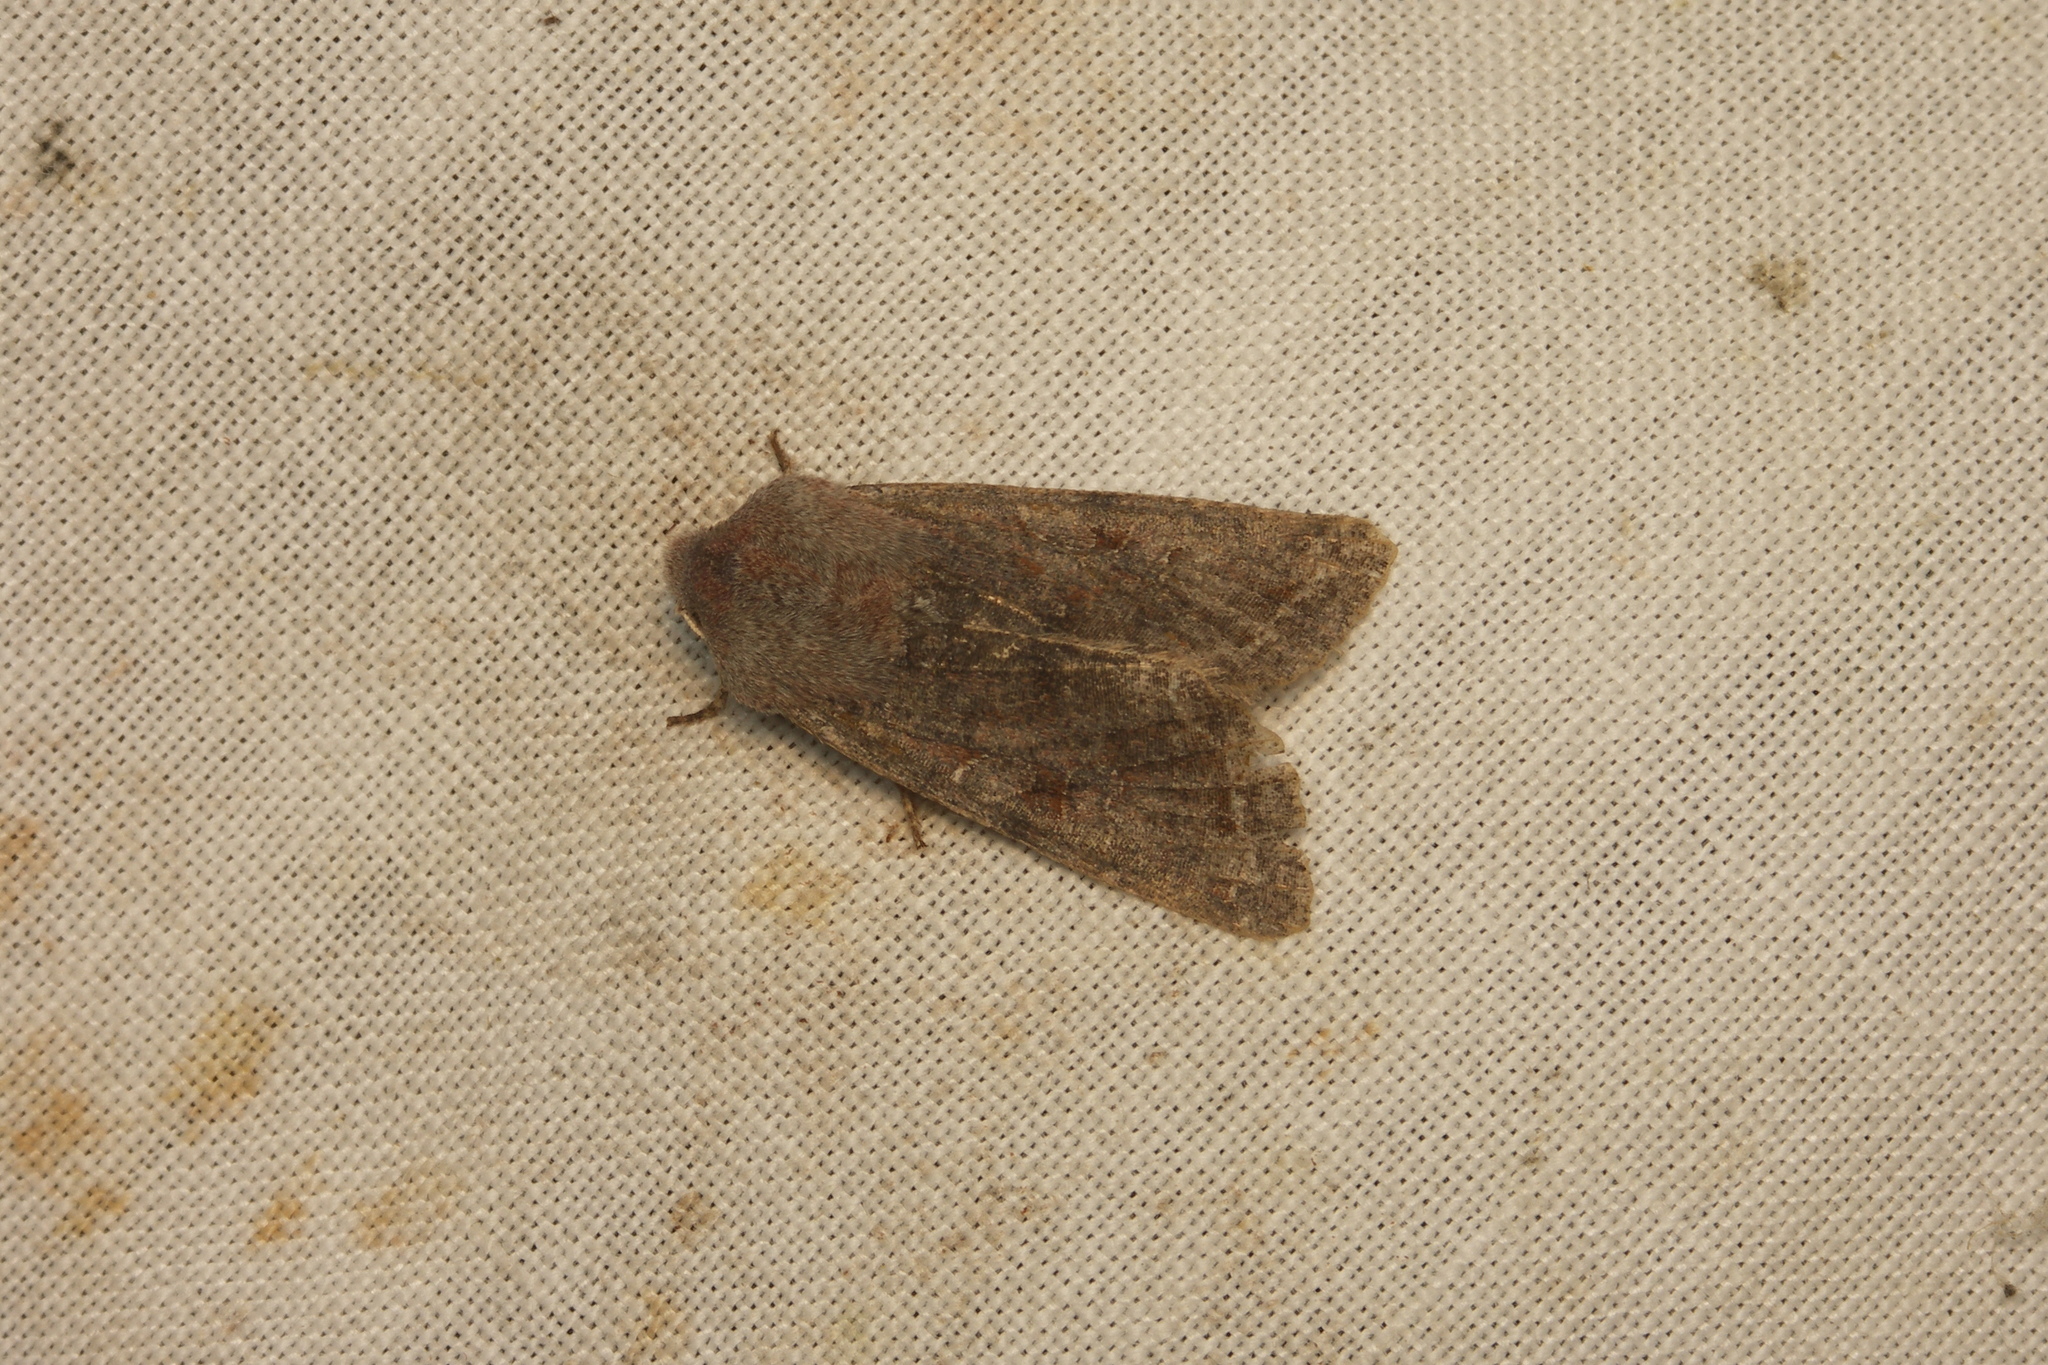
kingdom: Animalia
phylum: Arthropoda
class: Insecta
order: Lepidoptera
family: Noctuidae
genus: Orthosia
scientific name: Orthosia incerta
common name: Clouded drab
